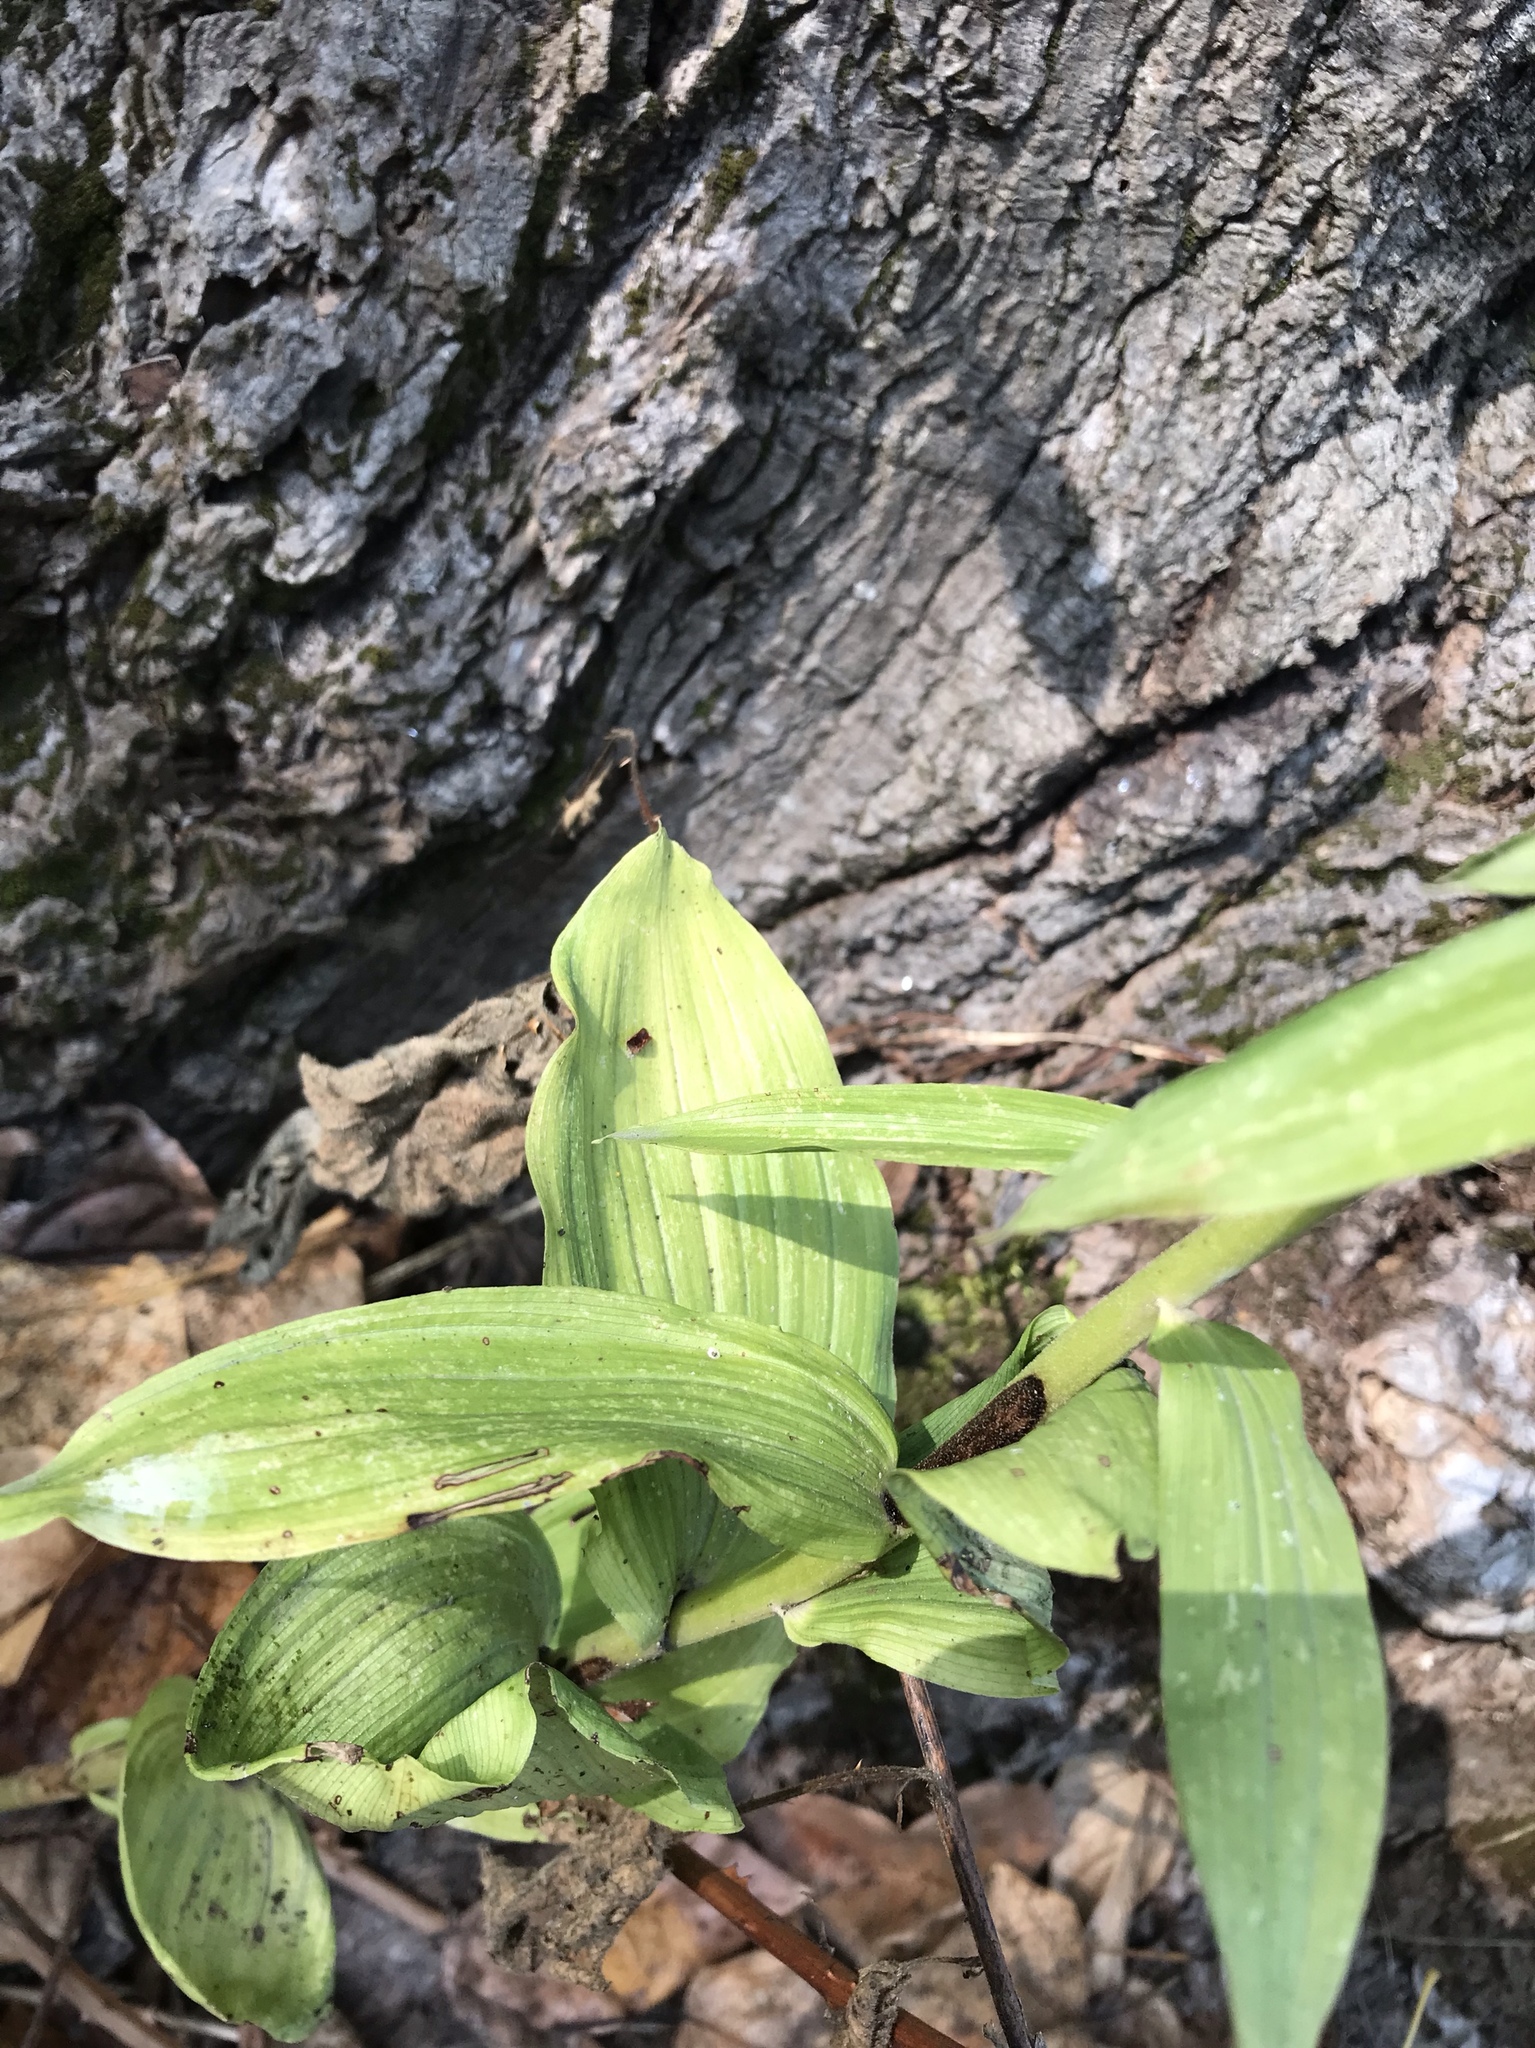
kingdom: Plantae
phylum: Tracheophyta
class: Liliopsida
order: Asparagales
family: Orchidaceae
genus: Epipactis
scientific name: Epipactis helleborine
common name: Broad-leaved helleborine
